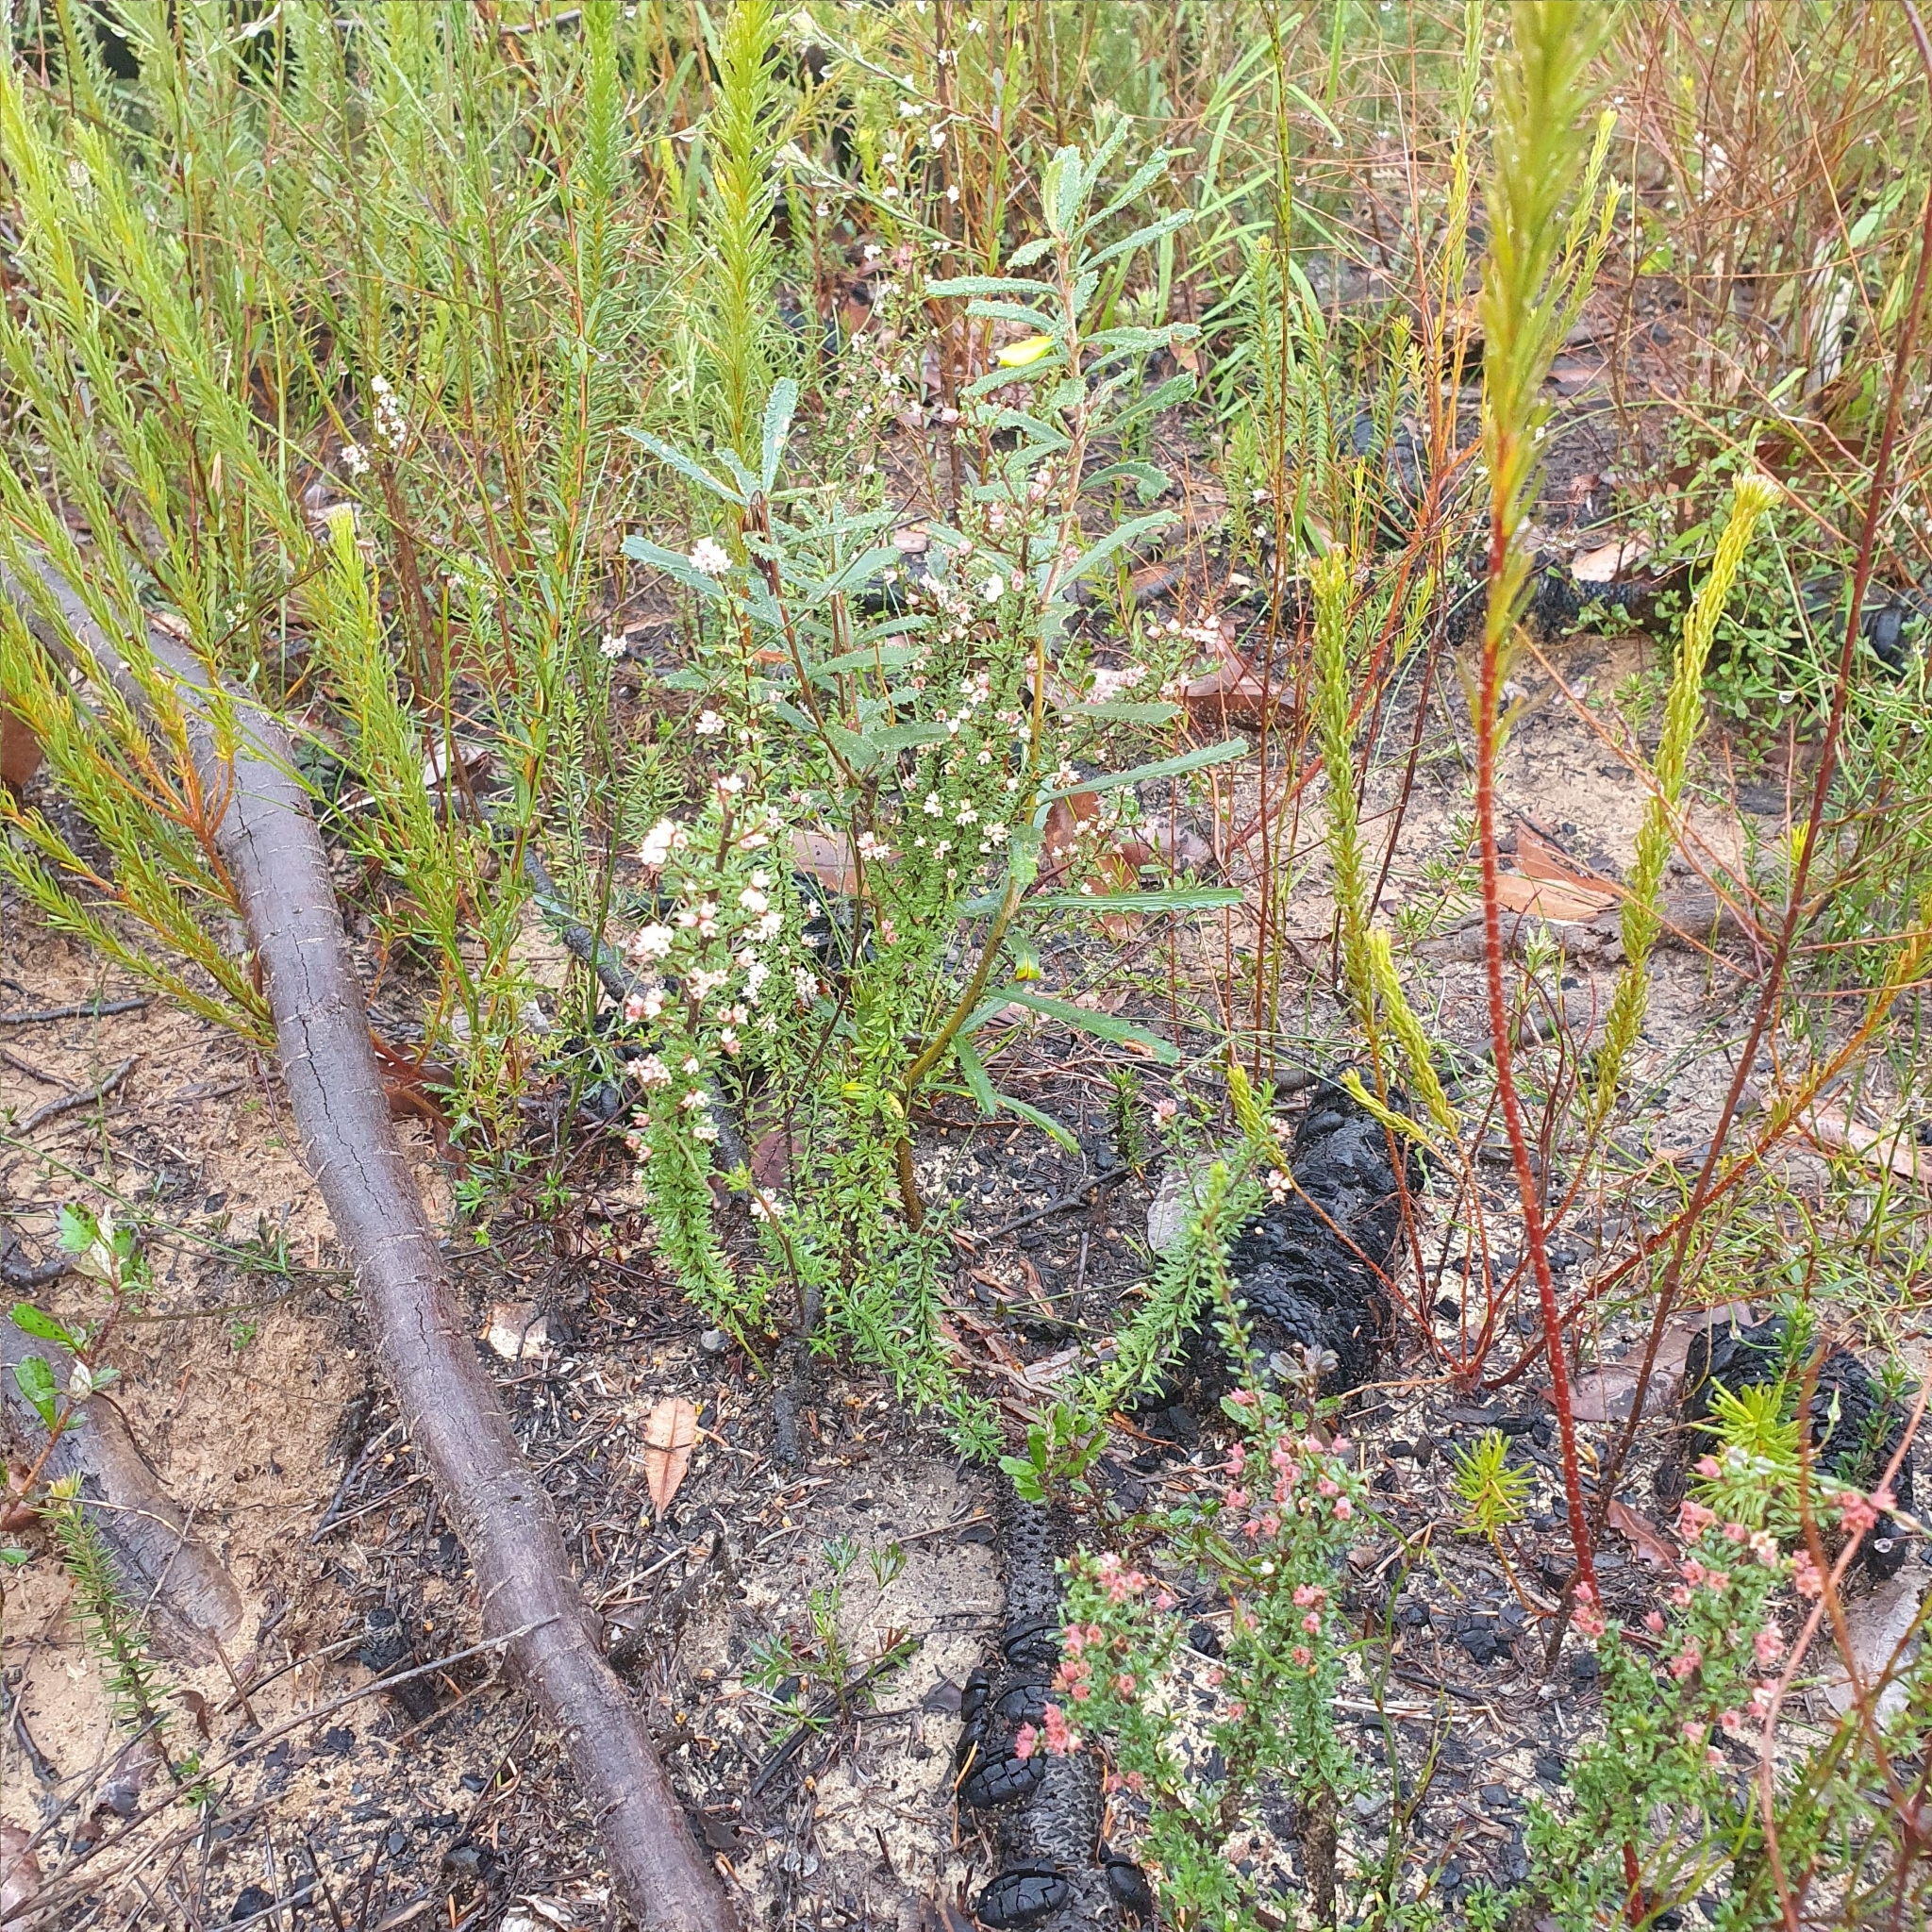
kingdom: Plantae
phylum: Tracheophyta
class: Magnoliopsida
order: Rosales
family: Rhamnaceae
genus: Cryptandra
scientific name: Cryptandra amara
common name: Bitter cryptandra
